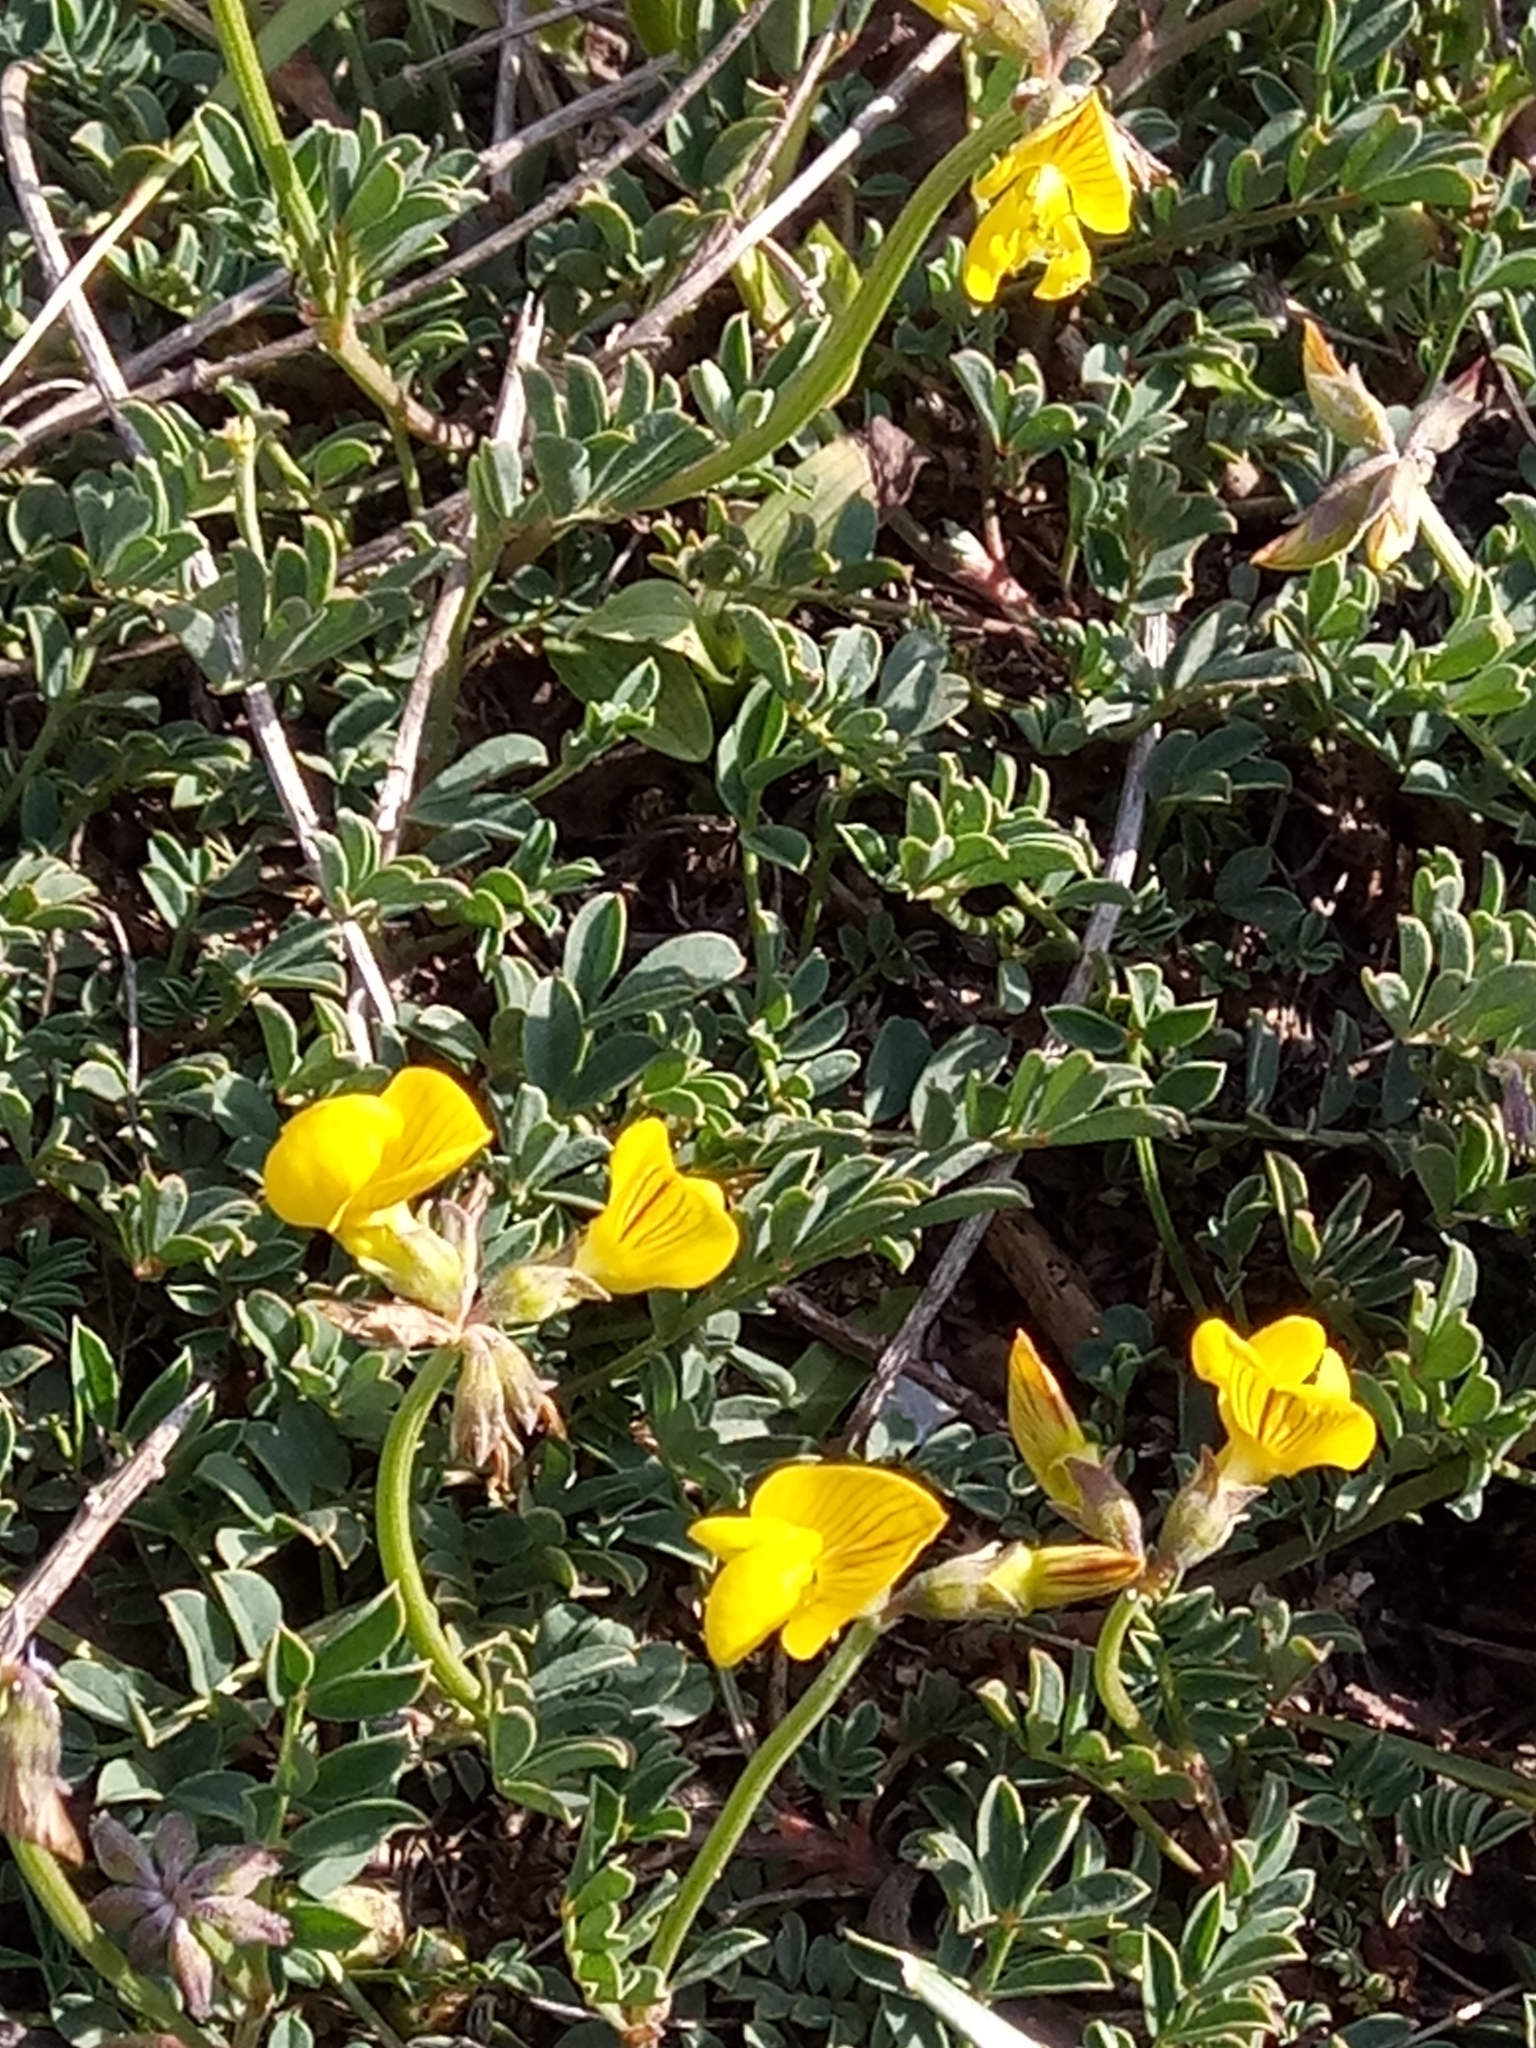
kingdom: Plantae
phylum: Tracheophyta
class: Magnoliopsida
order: Fabales
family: Fabaceae
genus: Hippocrepis
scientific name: Hippocrepis atlantica
